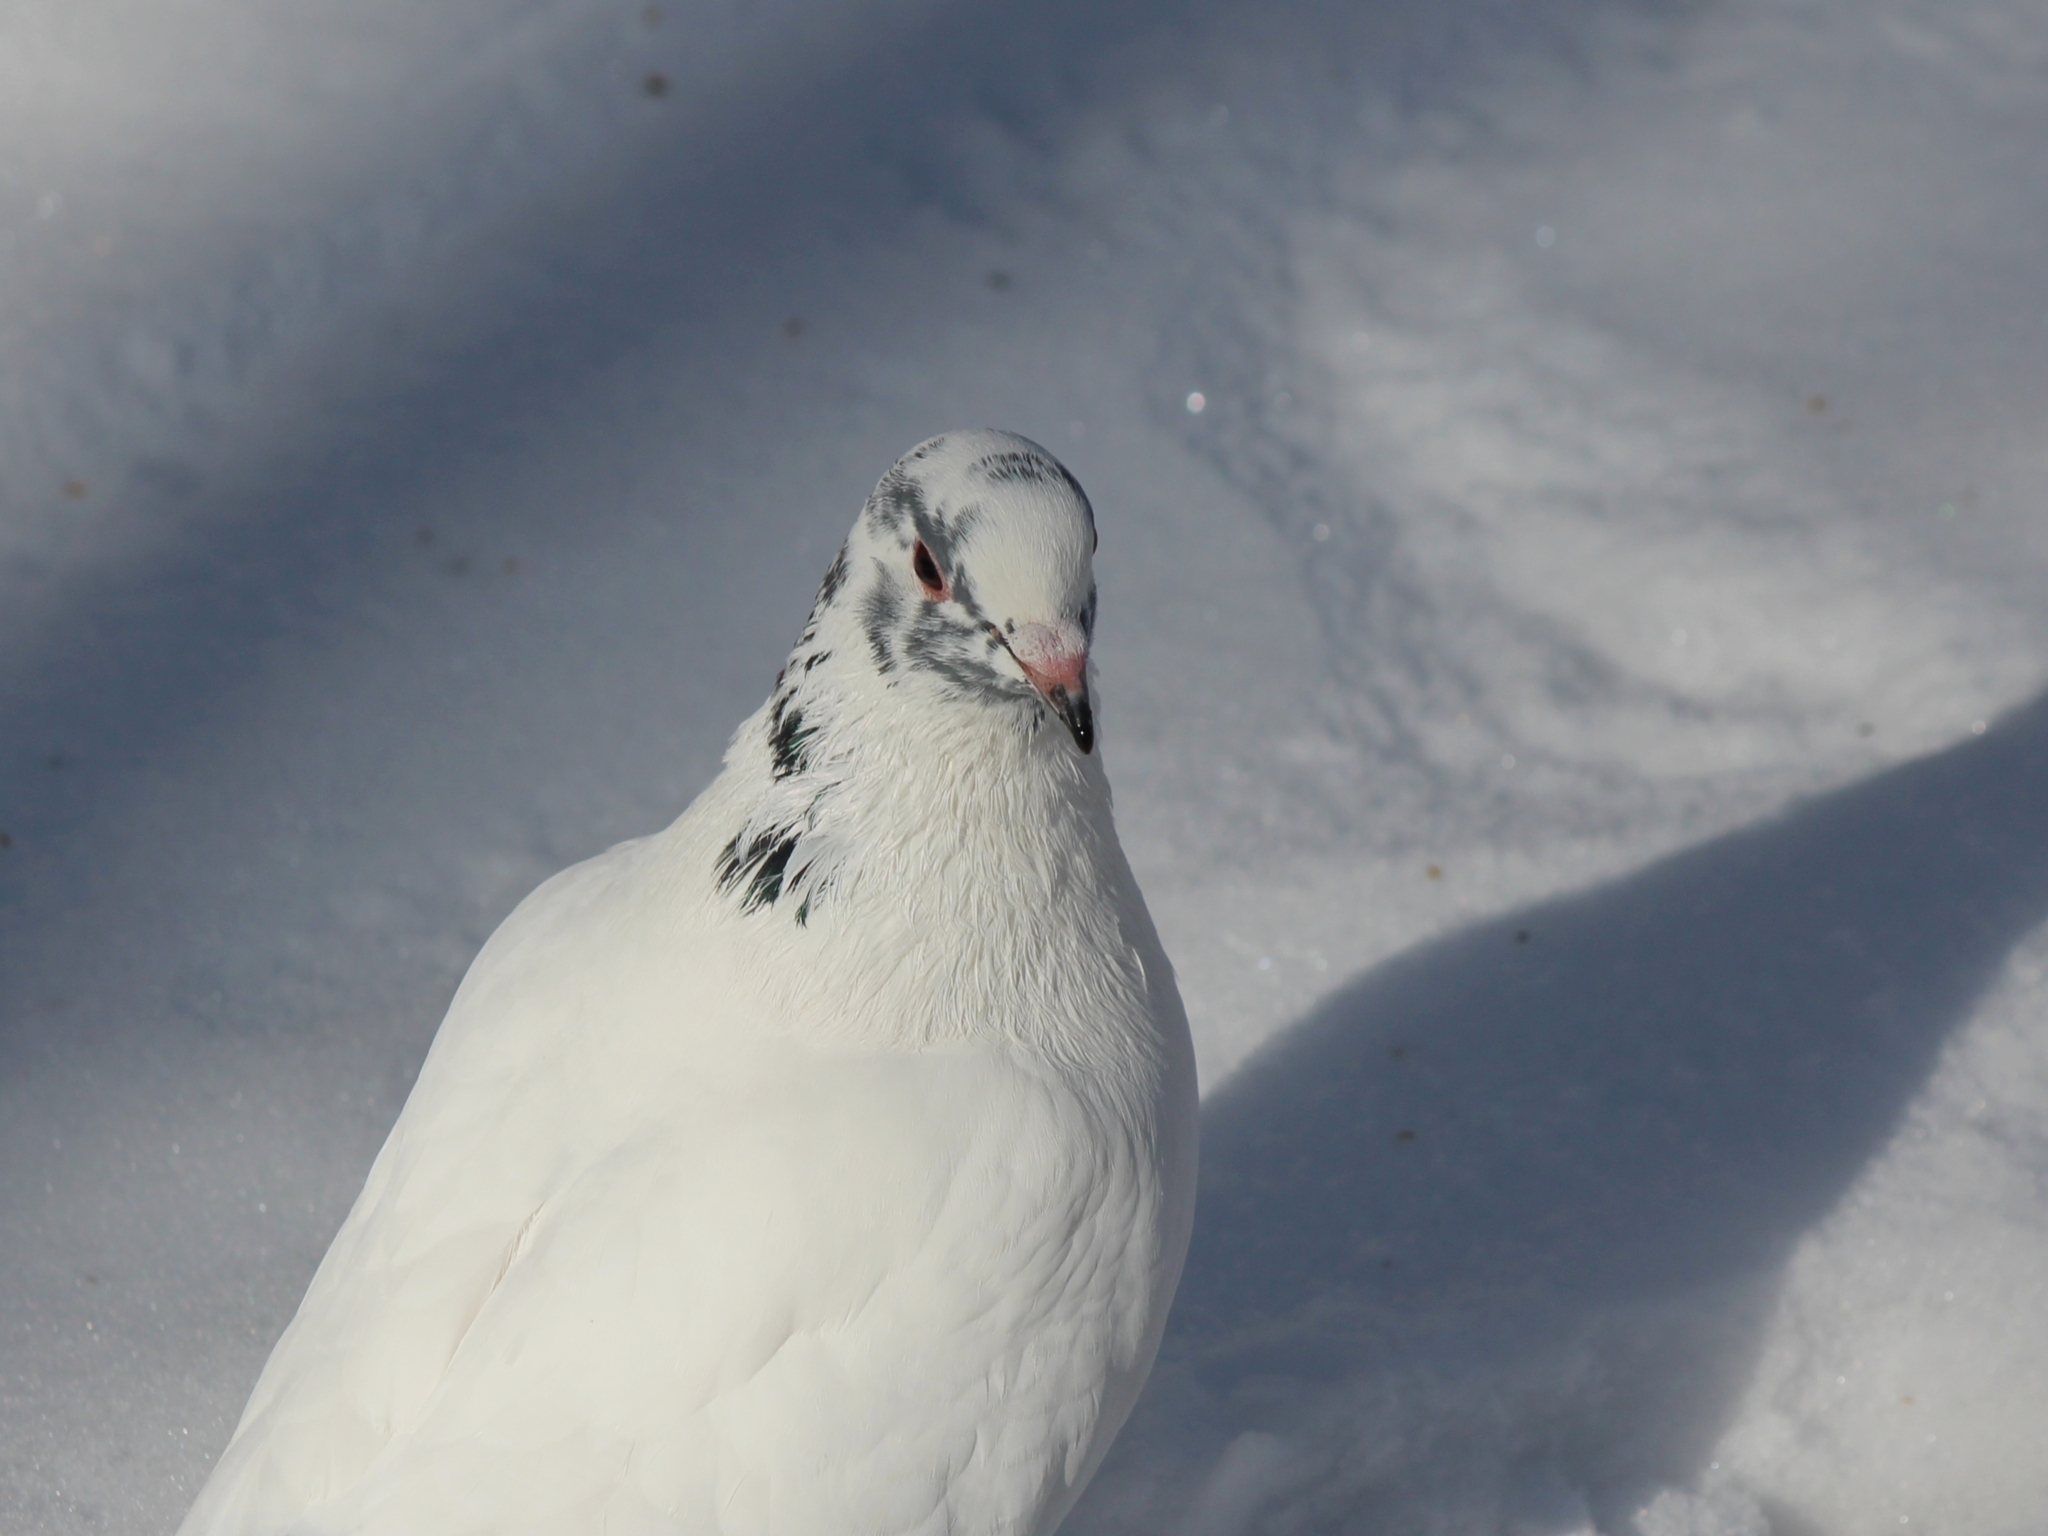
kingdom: Animalia
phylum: Chordata
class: Aves
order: Columbiformes
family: Columbidae
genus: Columba
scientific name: Columba livia
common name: Rock pigeon
